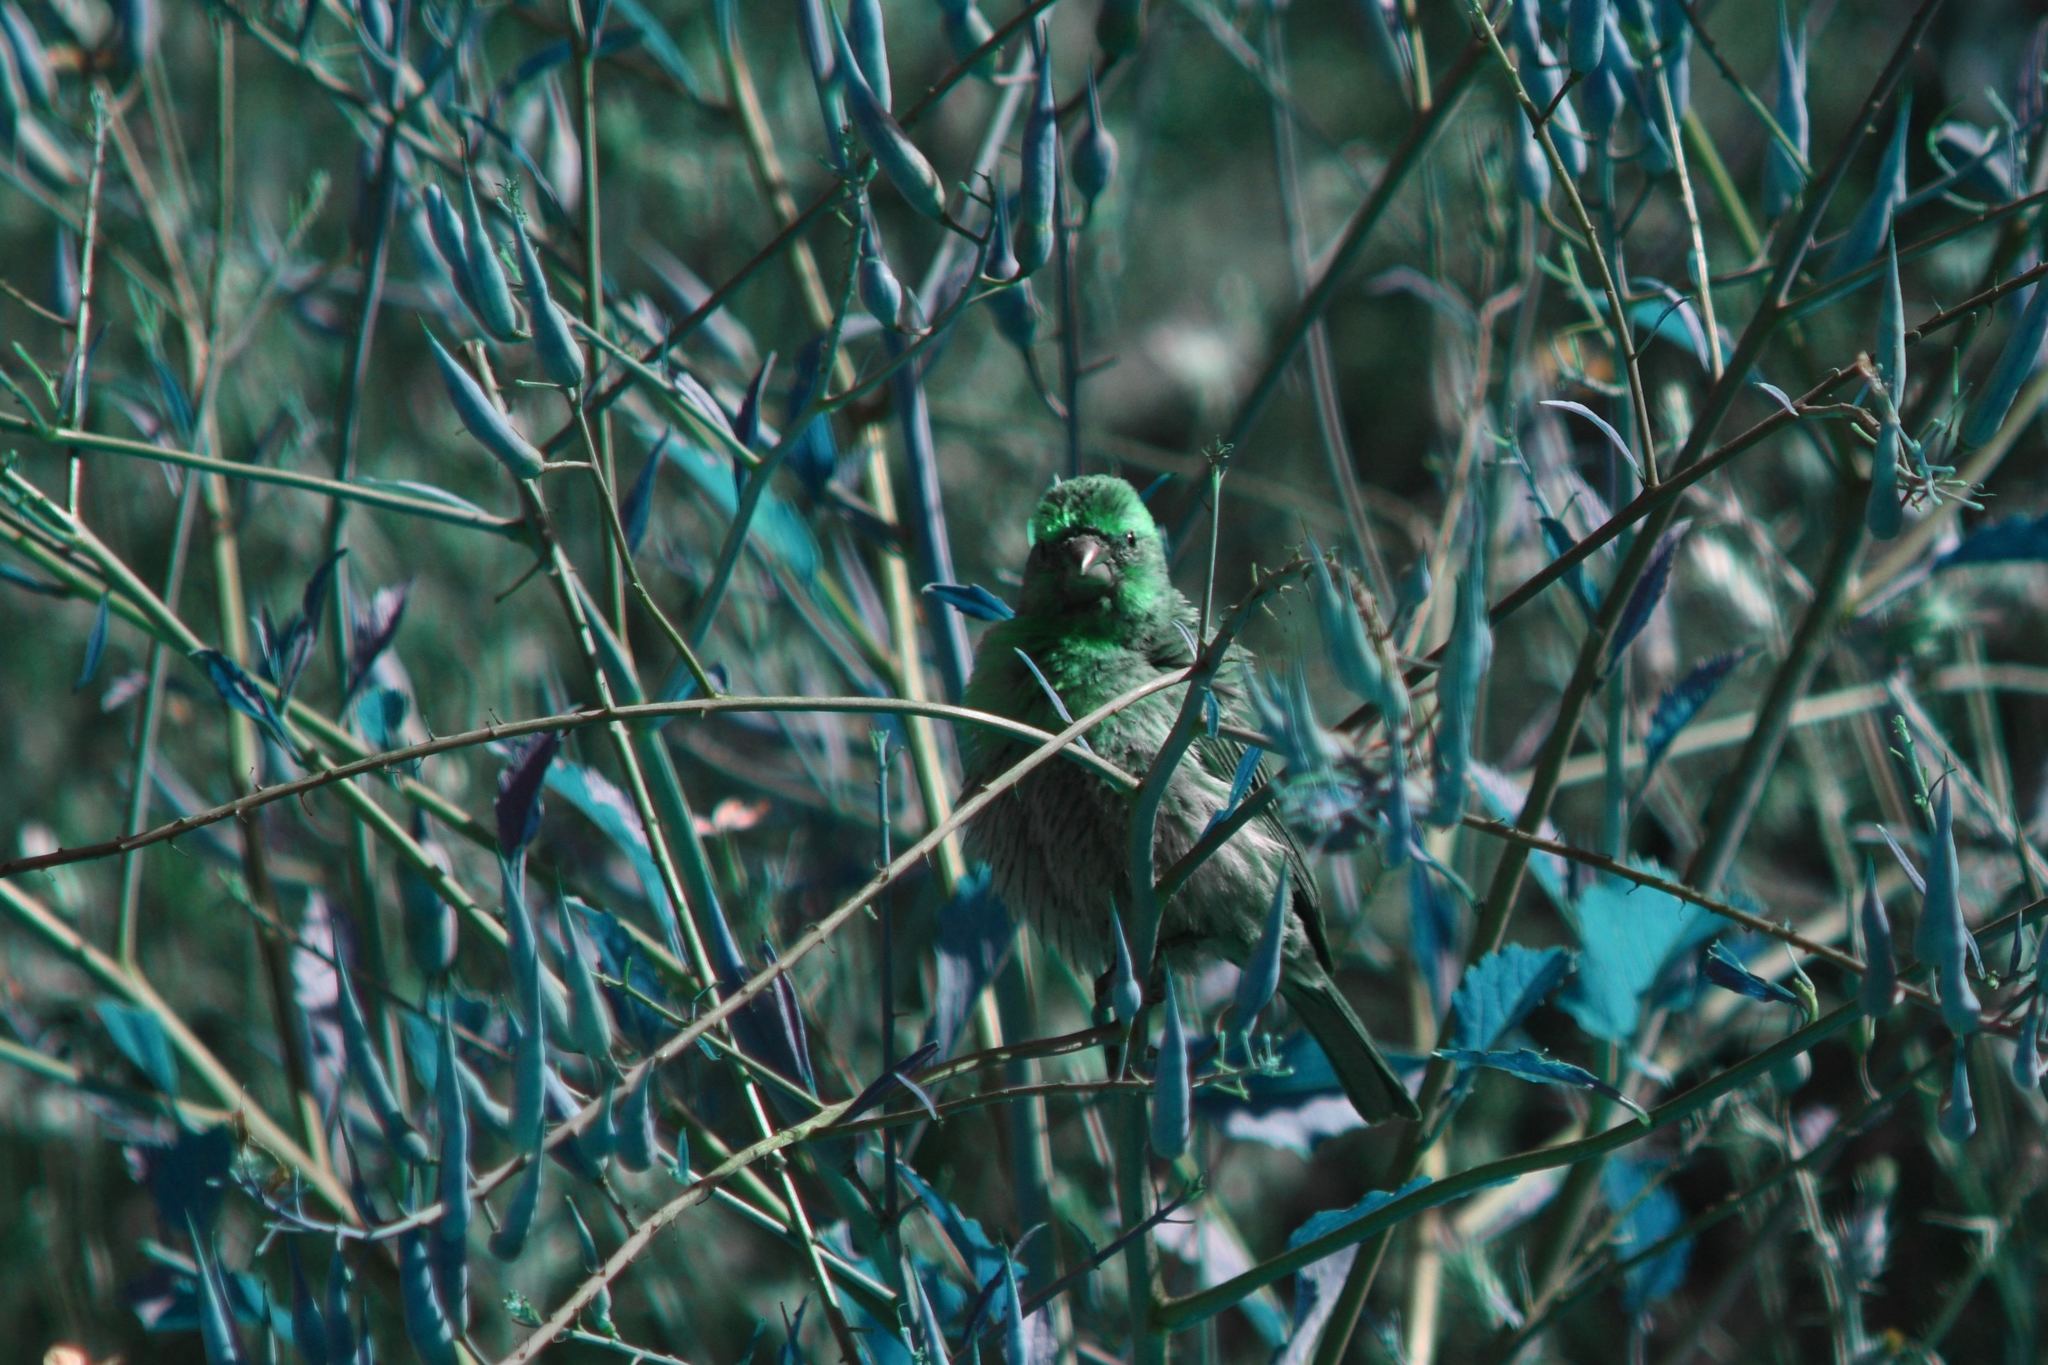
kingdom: Animalia
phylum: Chordata
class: Aves
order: Passeriformes
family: Fringillidae
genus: Haemorhous
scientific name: Haemorhous mexicanus
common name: House finch
